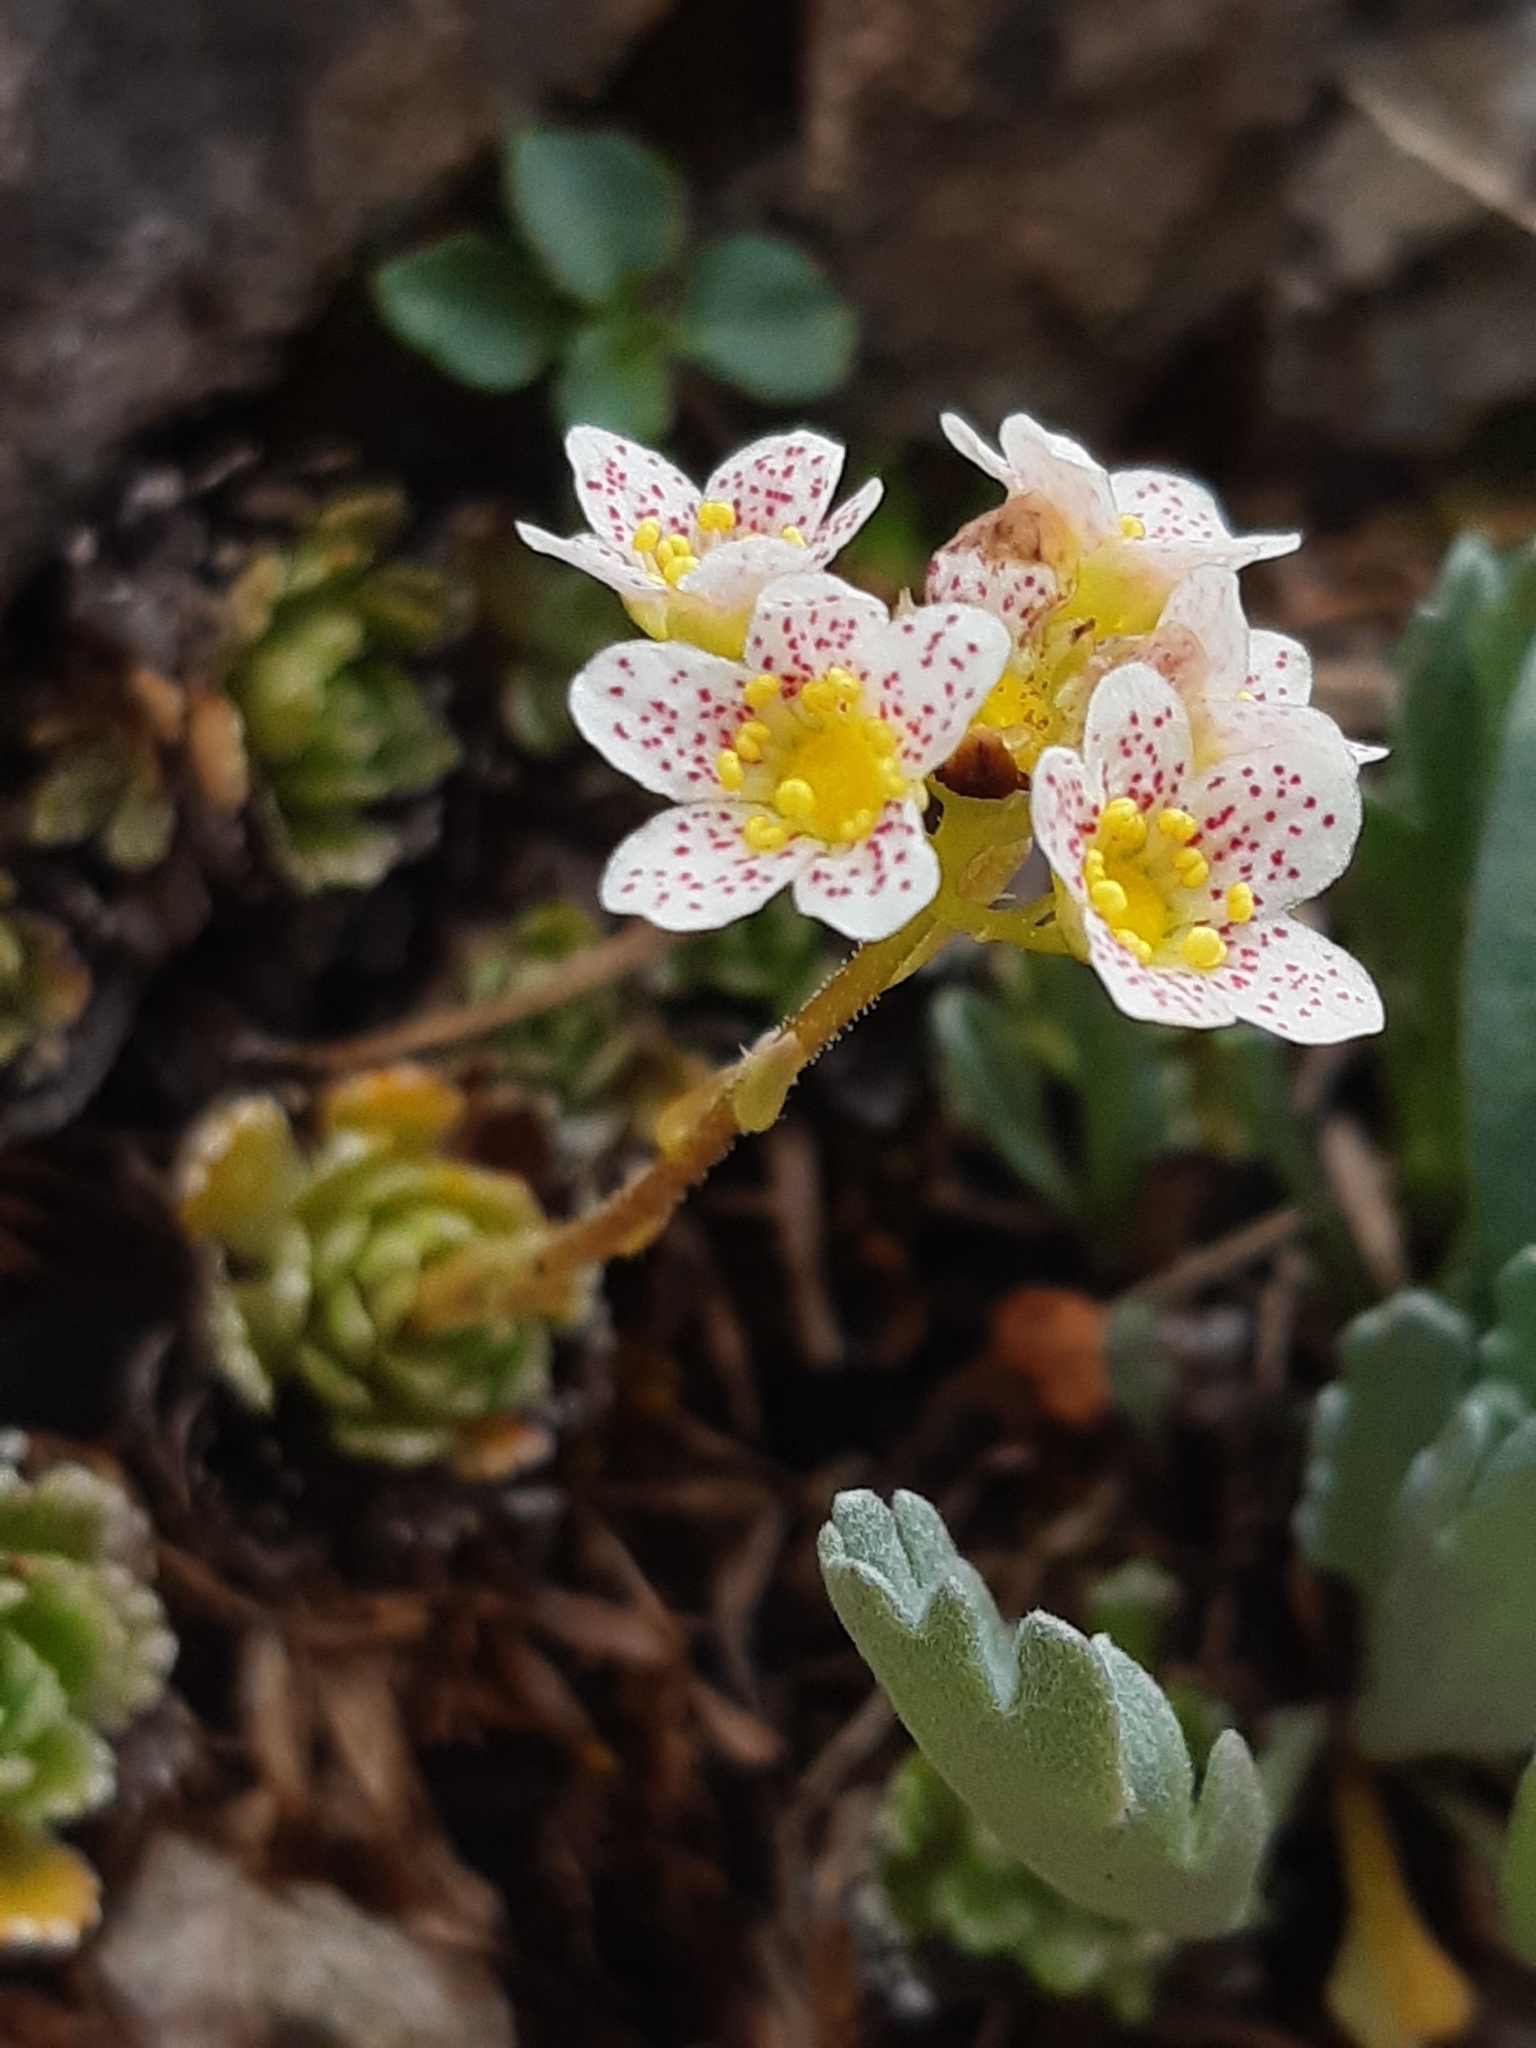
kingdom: Plantae
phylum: Tracheophyta
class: Magnoliopsida
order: Saxifragales
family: Saxifragaceae
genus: Saxifraga
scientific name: Saxifraga paniculata
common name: Livelong saxifrage
